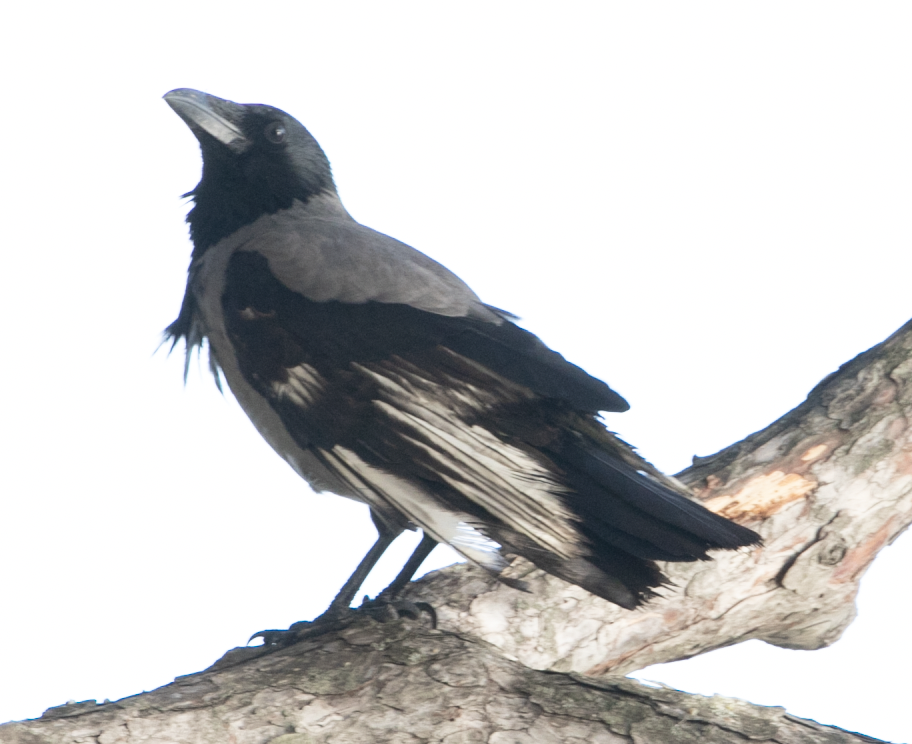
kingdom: Animalia
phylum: Chordata
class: Aves
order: Passeriformes
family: Corvidae
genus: Corvus
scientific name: Corvus cornix
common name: Hooded crow
